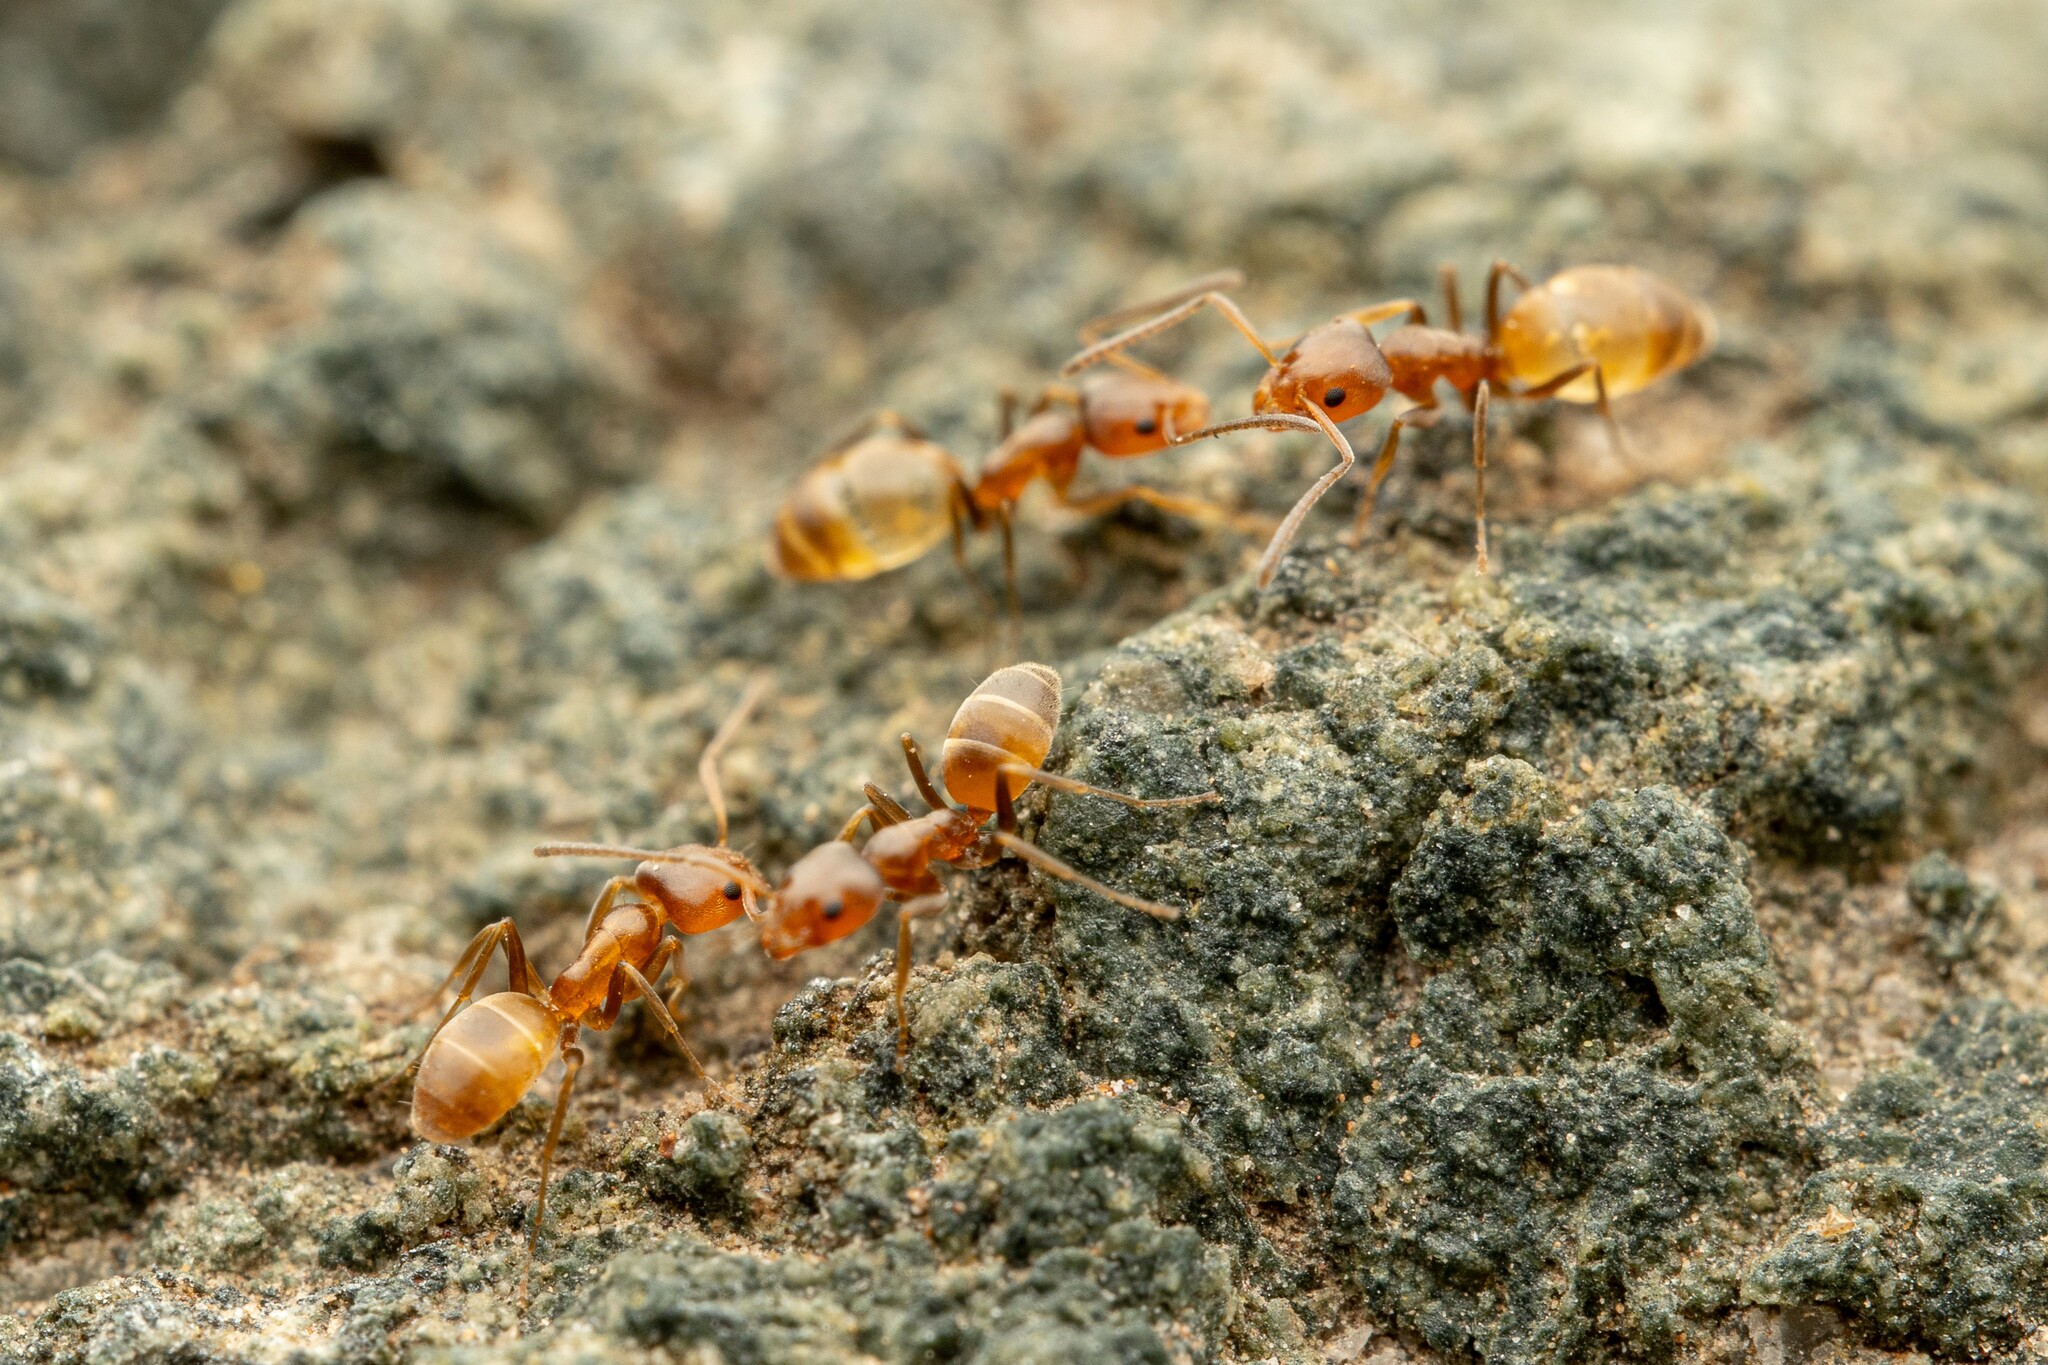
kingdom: Animalia
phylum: Arthropoda
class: Insecta
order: Hymenoptera
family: Formicidae
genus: Forelius
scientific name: Forelius pruinosus
